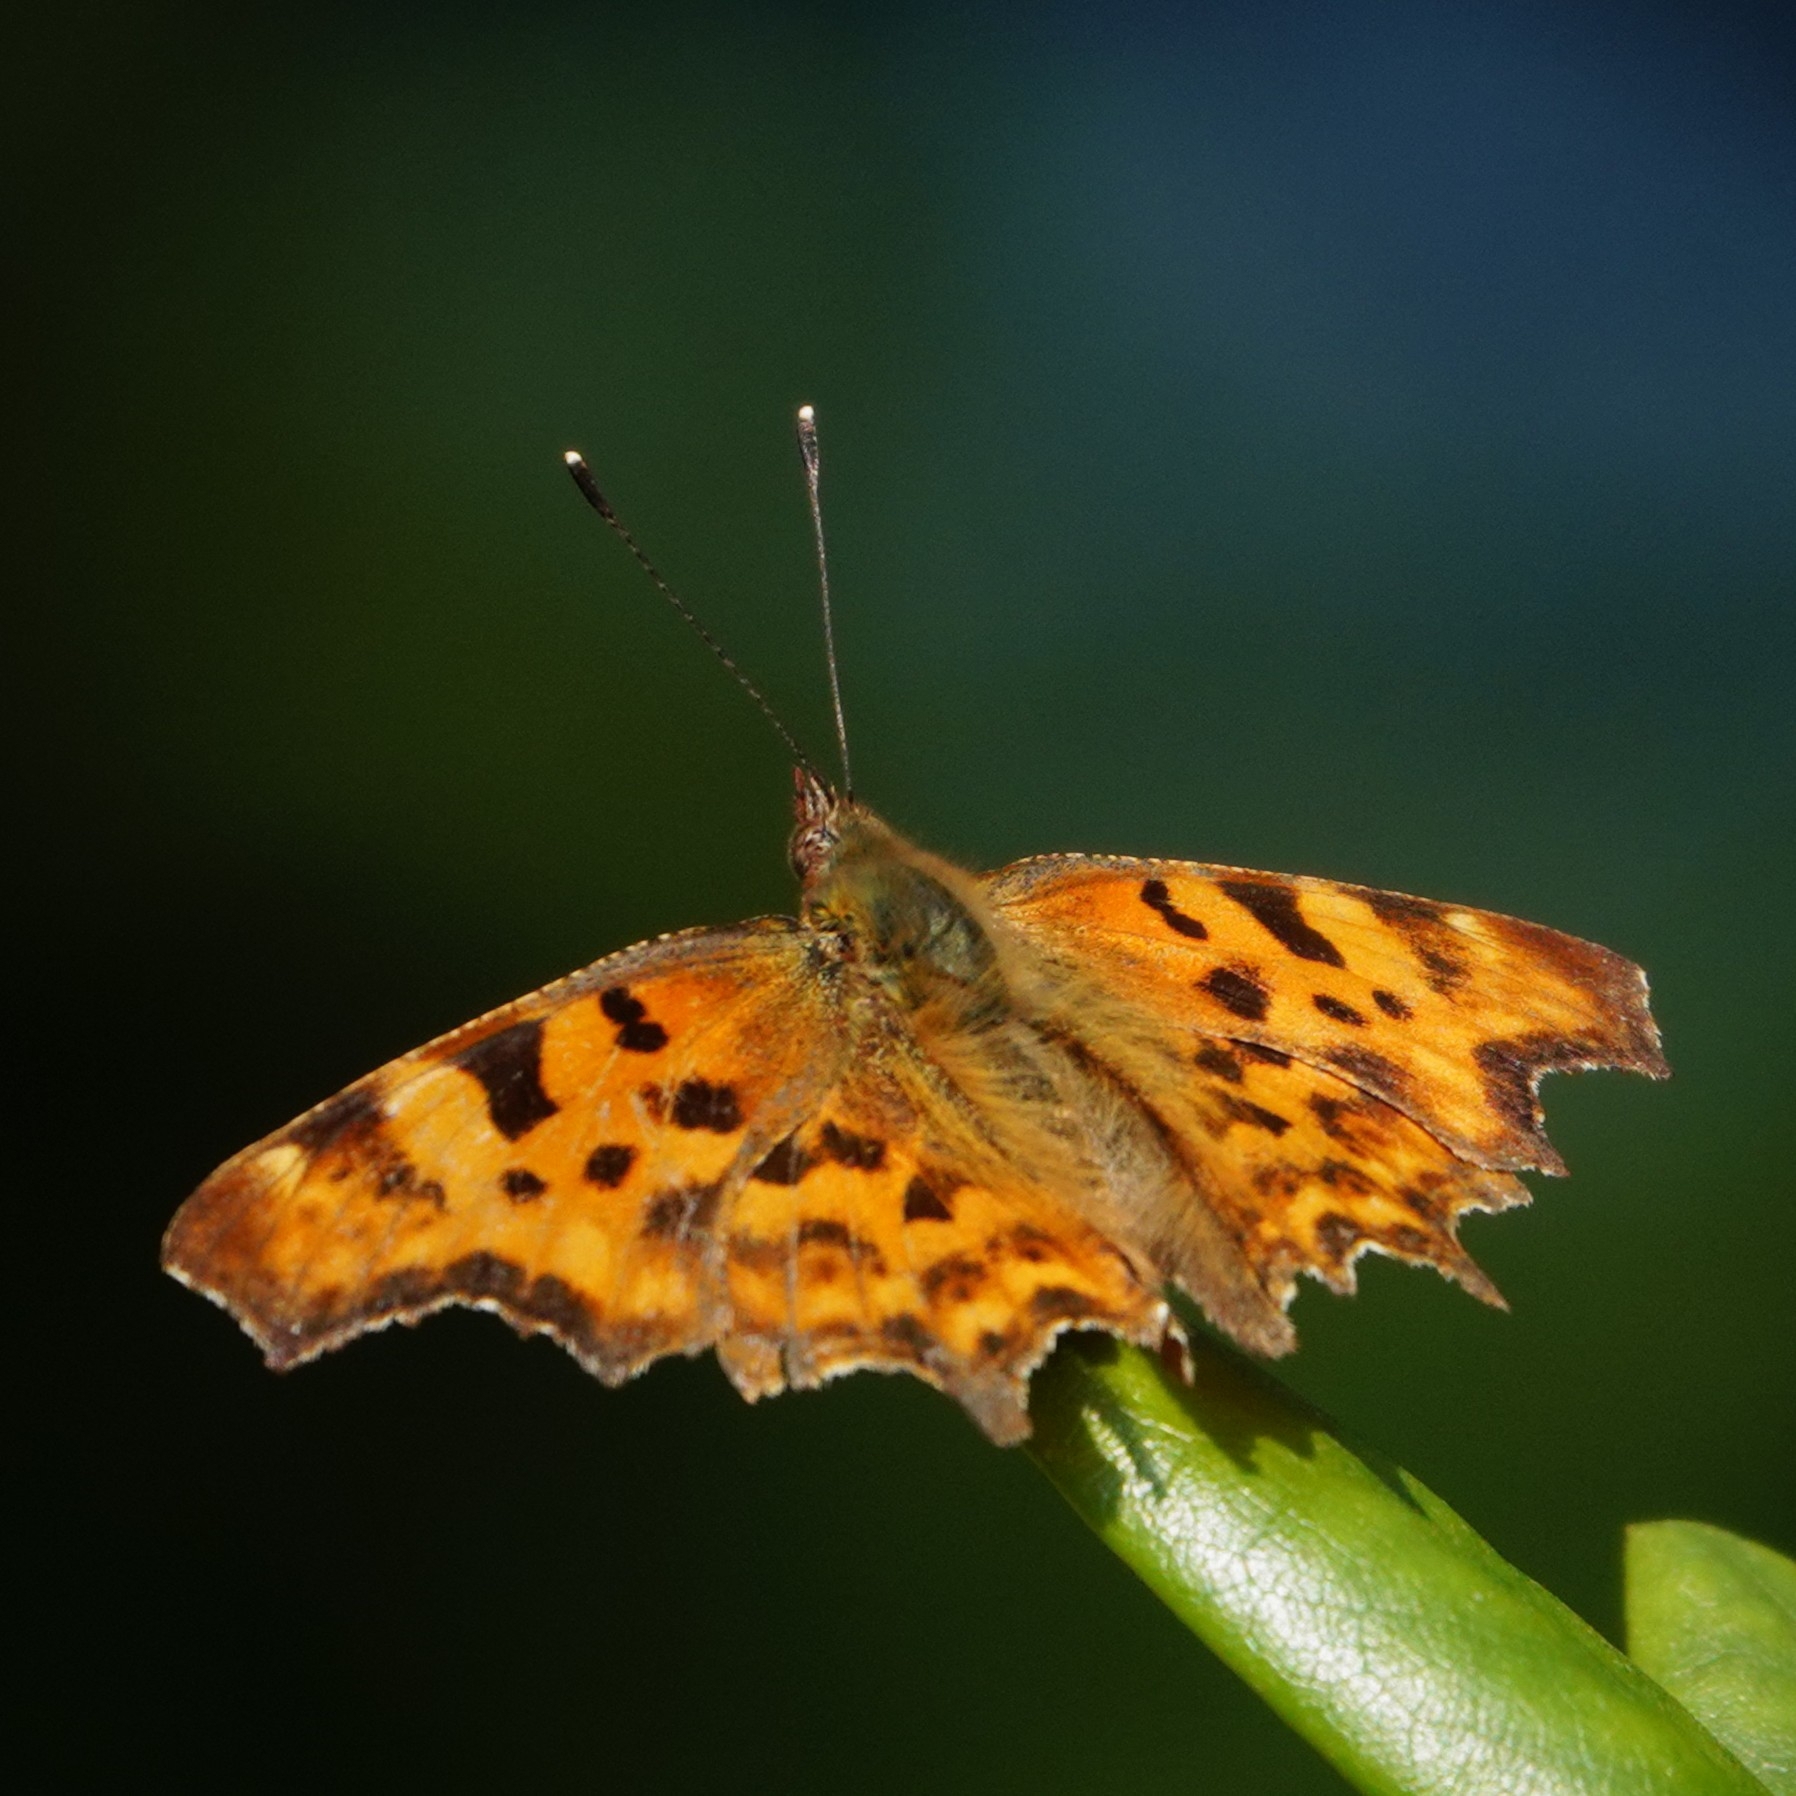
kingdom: Animalia
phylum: Arthropoda
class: Insecta
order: Lepidoptera
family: Nymphalidae
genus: Polygonia
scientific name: Polygonia c-album
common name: Comma
